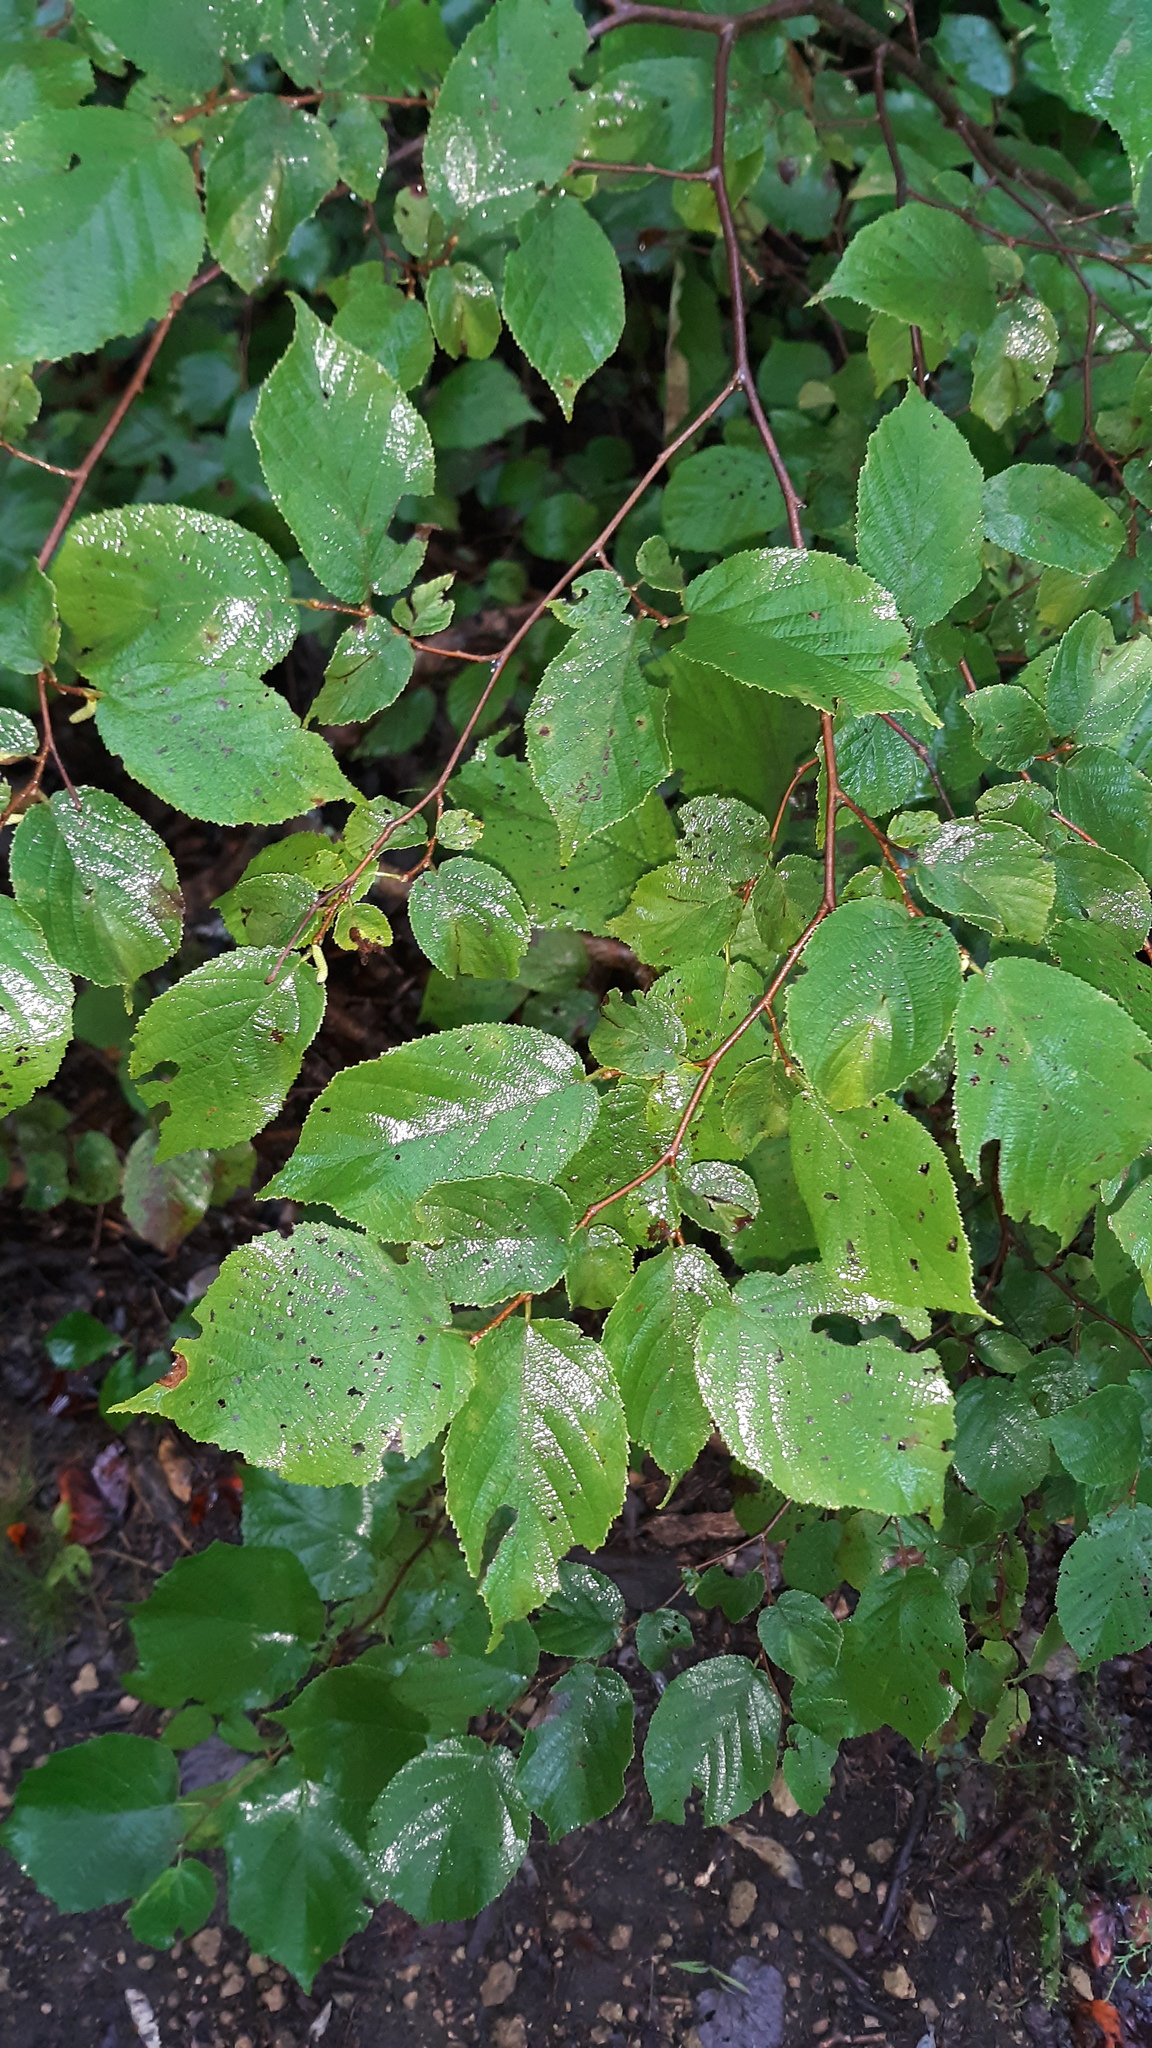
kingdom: Plantae
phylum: Tracheophyta
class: Magnoliopsida
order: Fagales
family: Betulaceae
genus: Corylus
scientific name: Corylus americana
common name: American hazel
